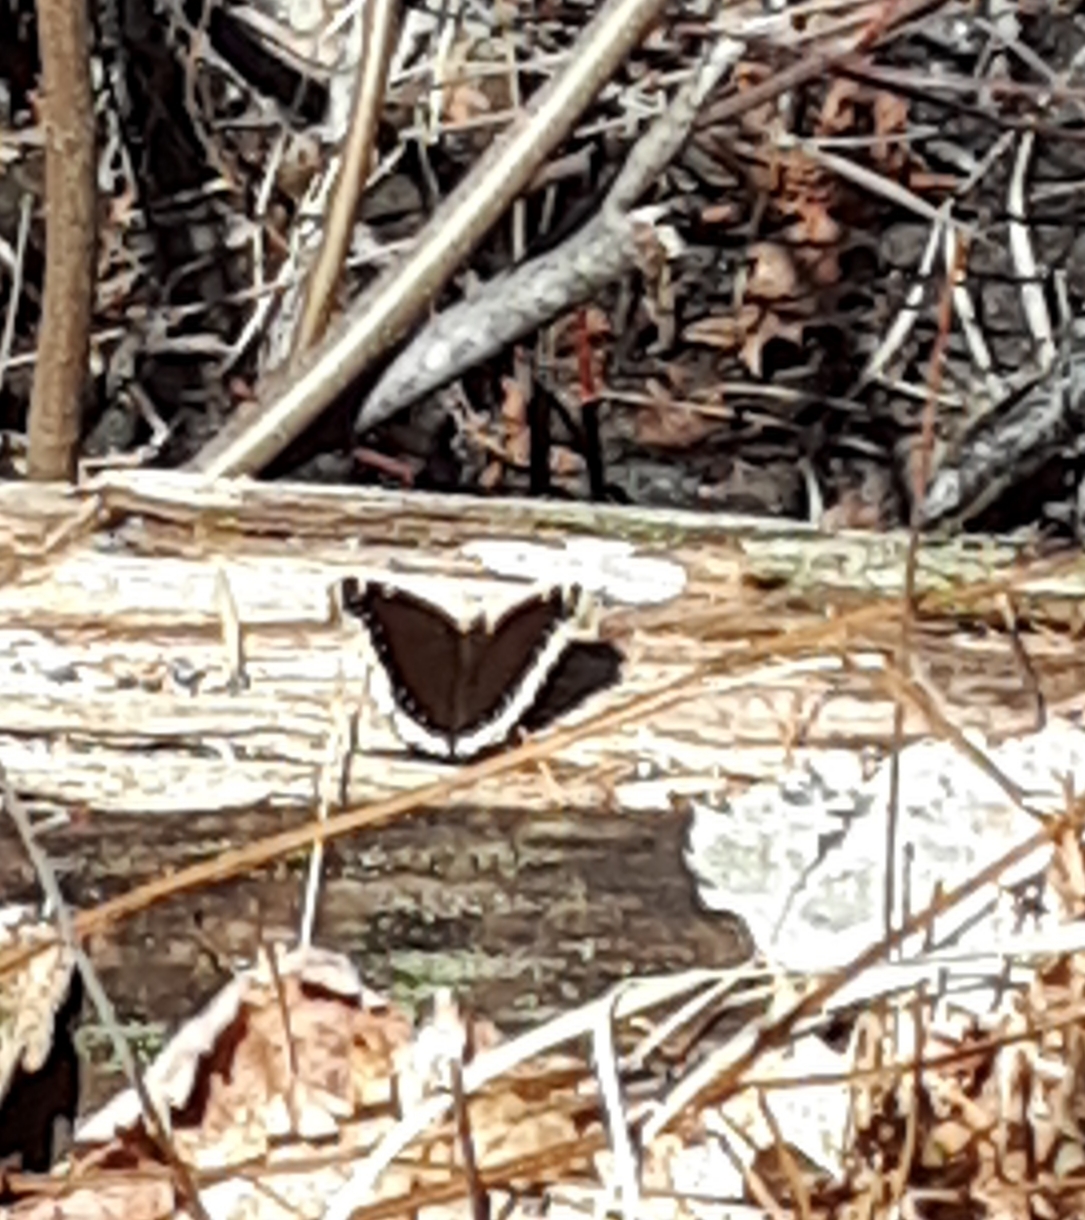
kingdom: Animalia
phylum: Arthropoda
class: Insecta
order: Lepidoptera
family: Nymphalidae
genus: Nymphalis
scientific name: Nymphalis antiopa
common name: Camberwell beauty
